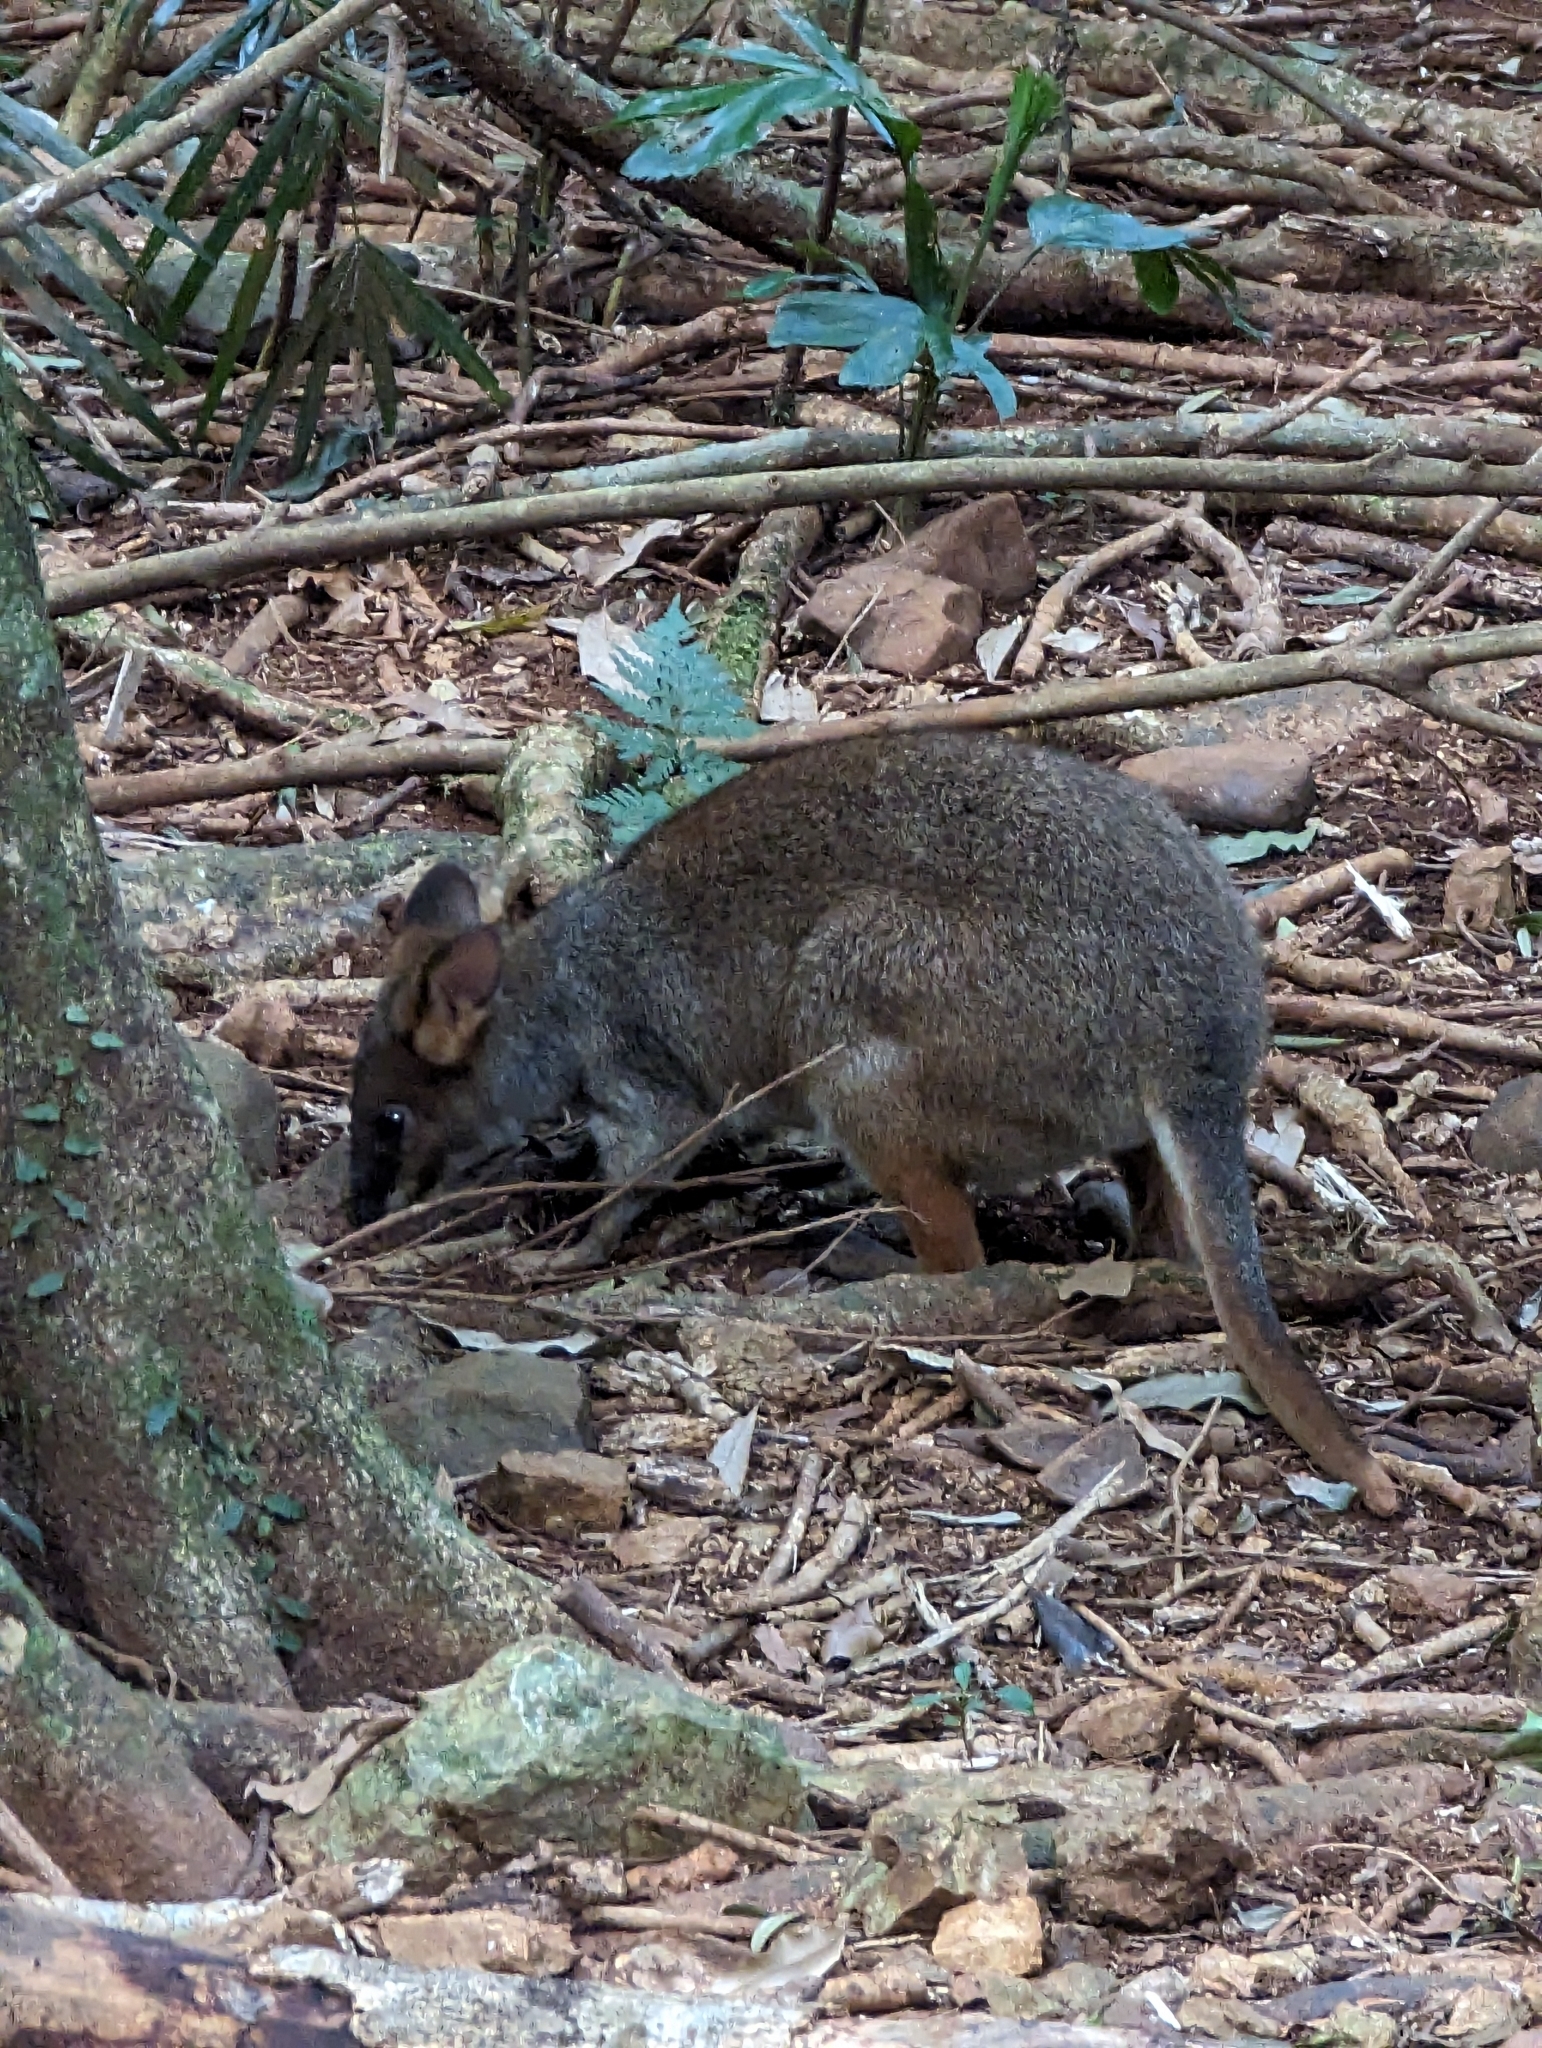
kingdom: Animalia
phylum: Chordata
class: Mammalia
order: Diprotodontia
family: Macropodidae
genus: Thylogale
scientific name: Thylogale stigmatica
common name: Red-legged pademelon
